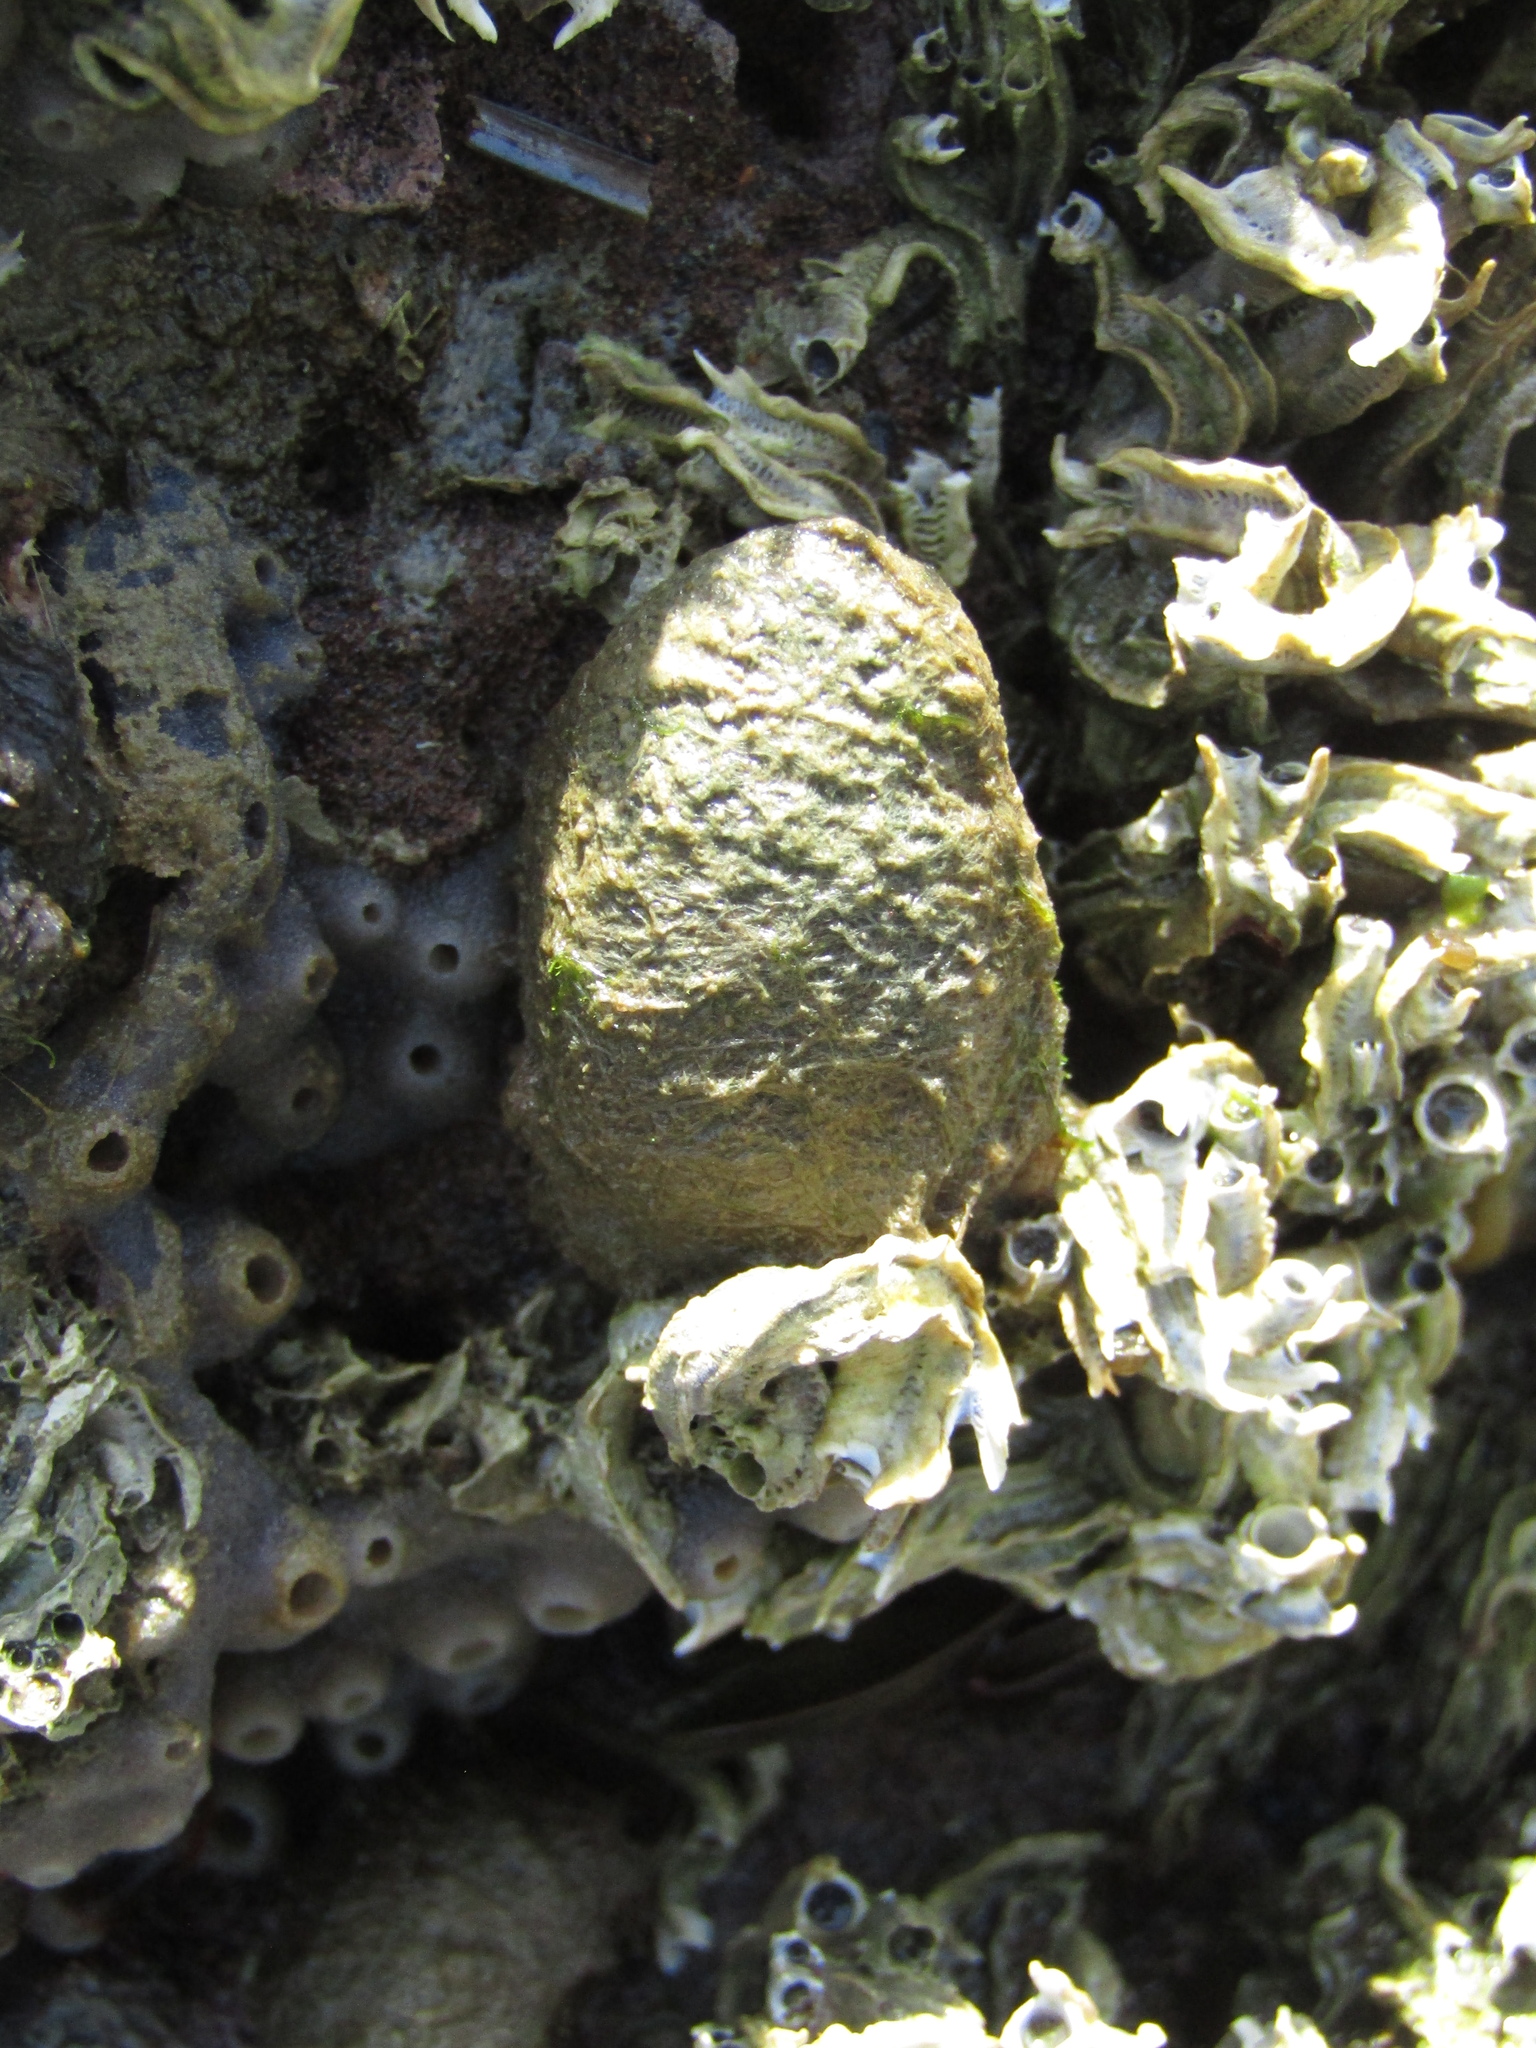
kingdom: Animalia
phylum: Mollusca
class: Bivalvia
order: Mytilida
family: Mytilidae
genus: Musculus
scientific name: Musculus impactus
